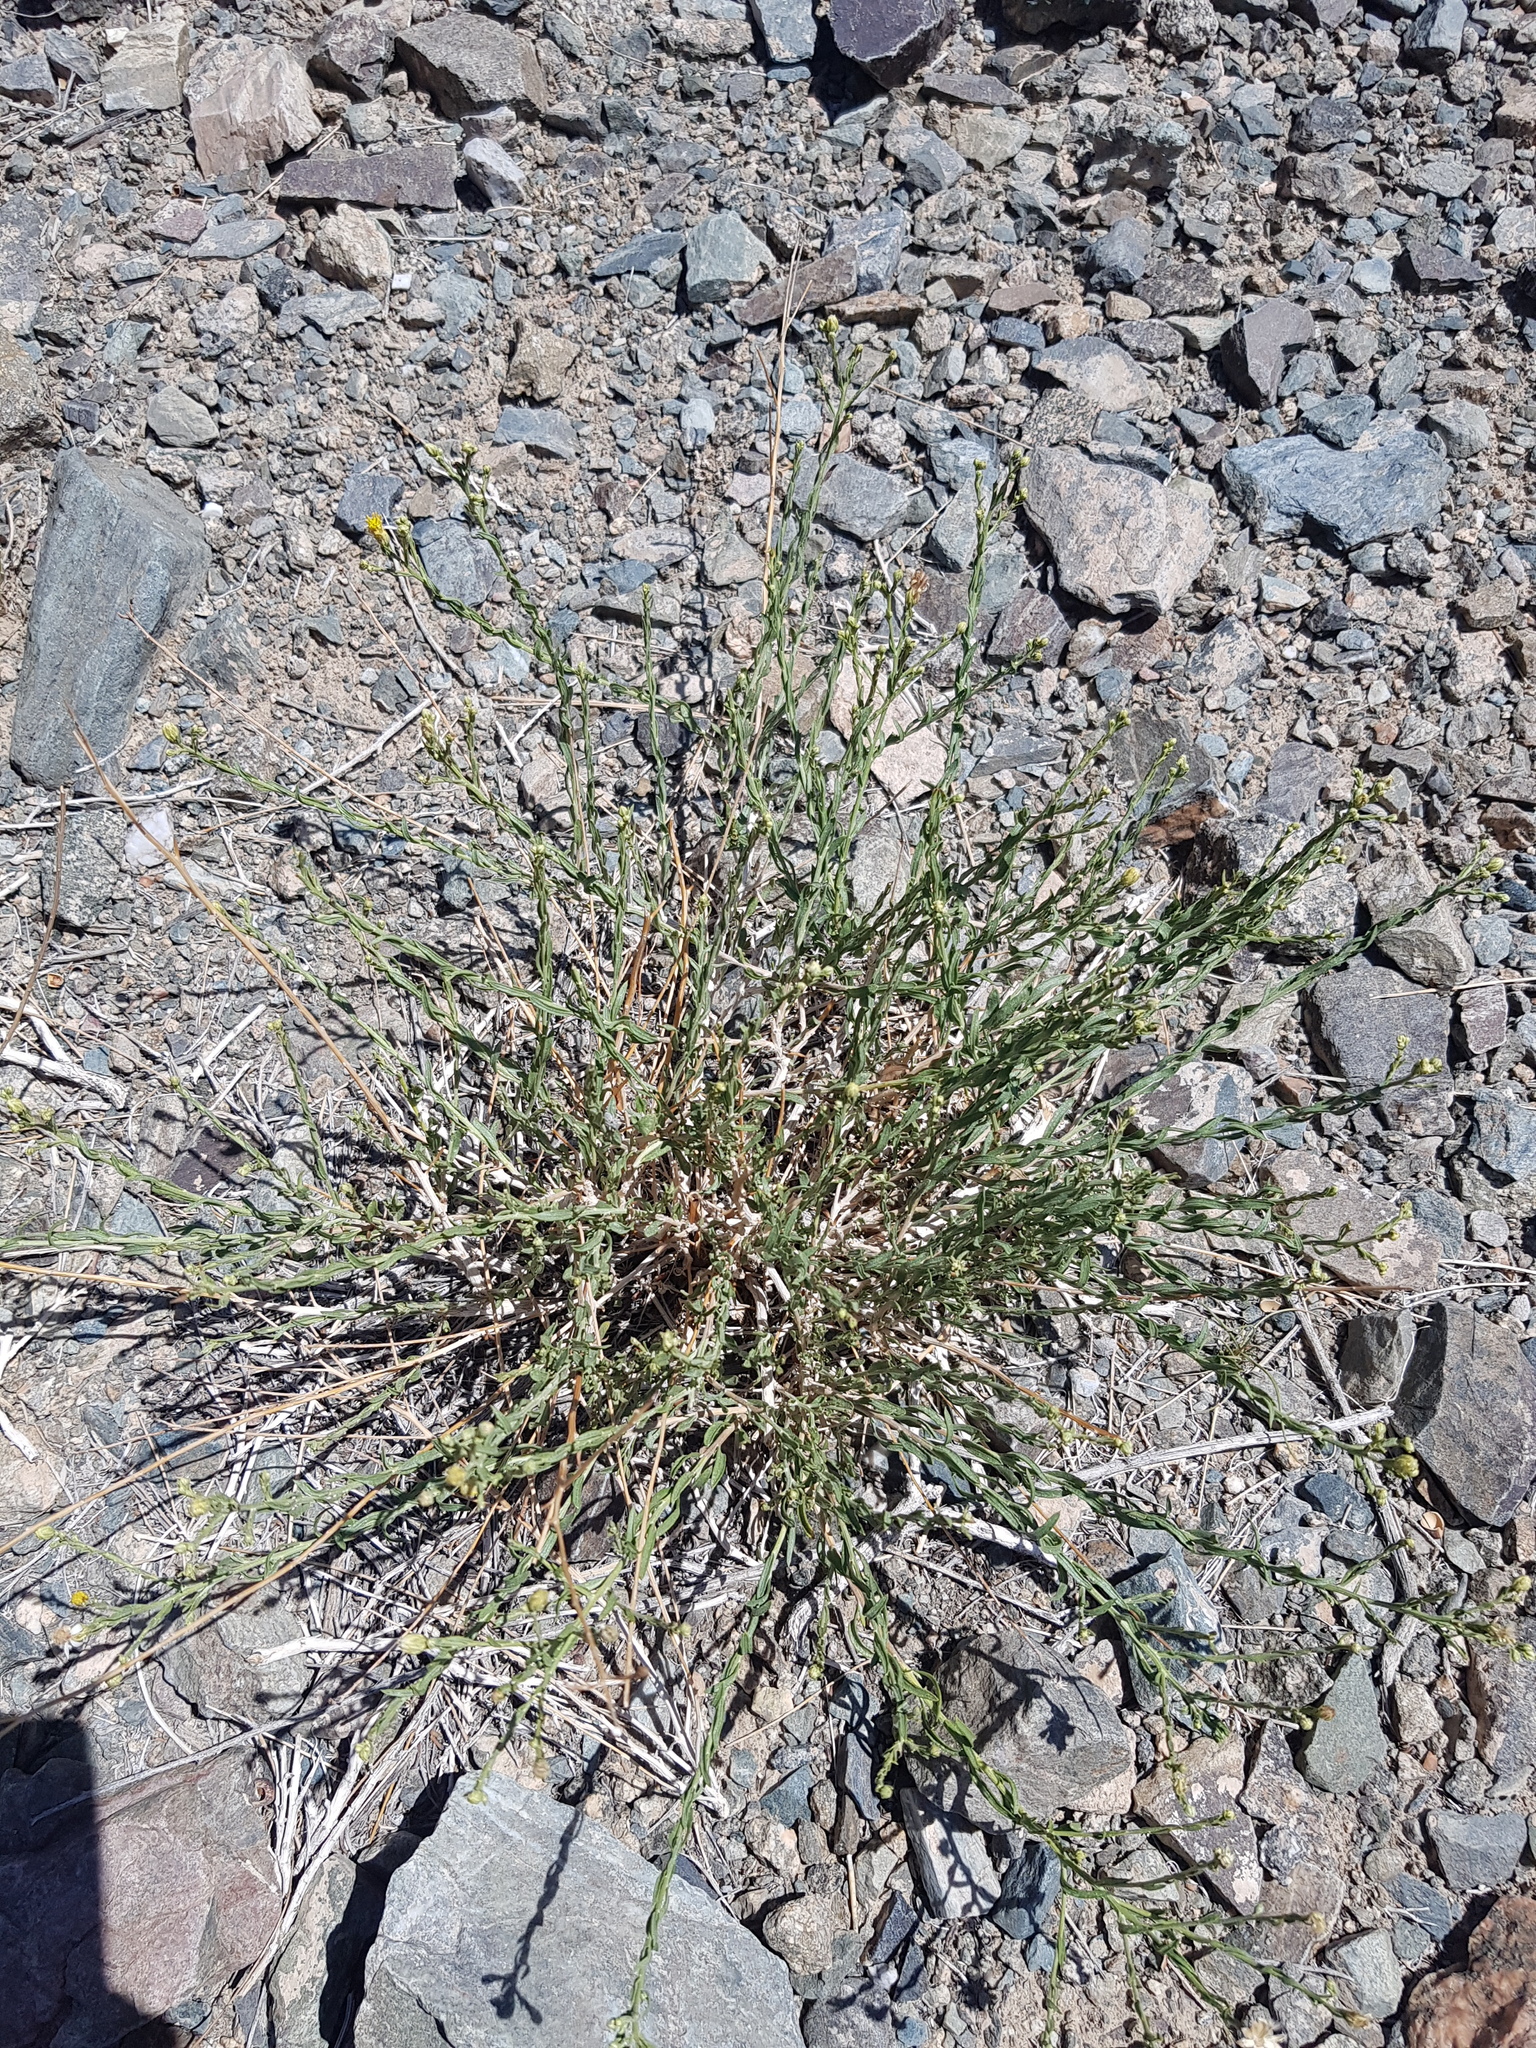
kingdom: Plantae
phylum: Tracheophyta
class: Magnoliopsida
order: Asterales
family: Asteraceae
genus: Asterothamnus
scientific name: Asterothamnus centraliasiaticus
